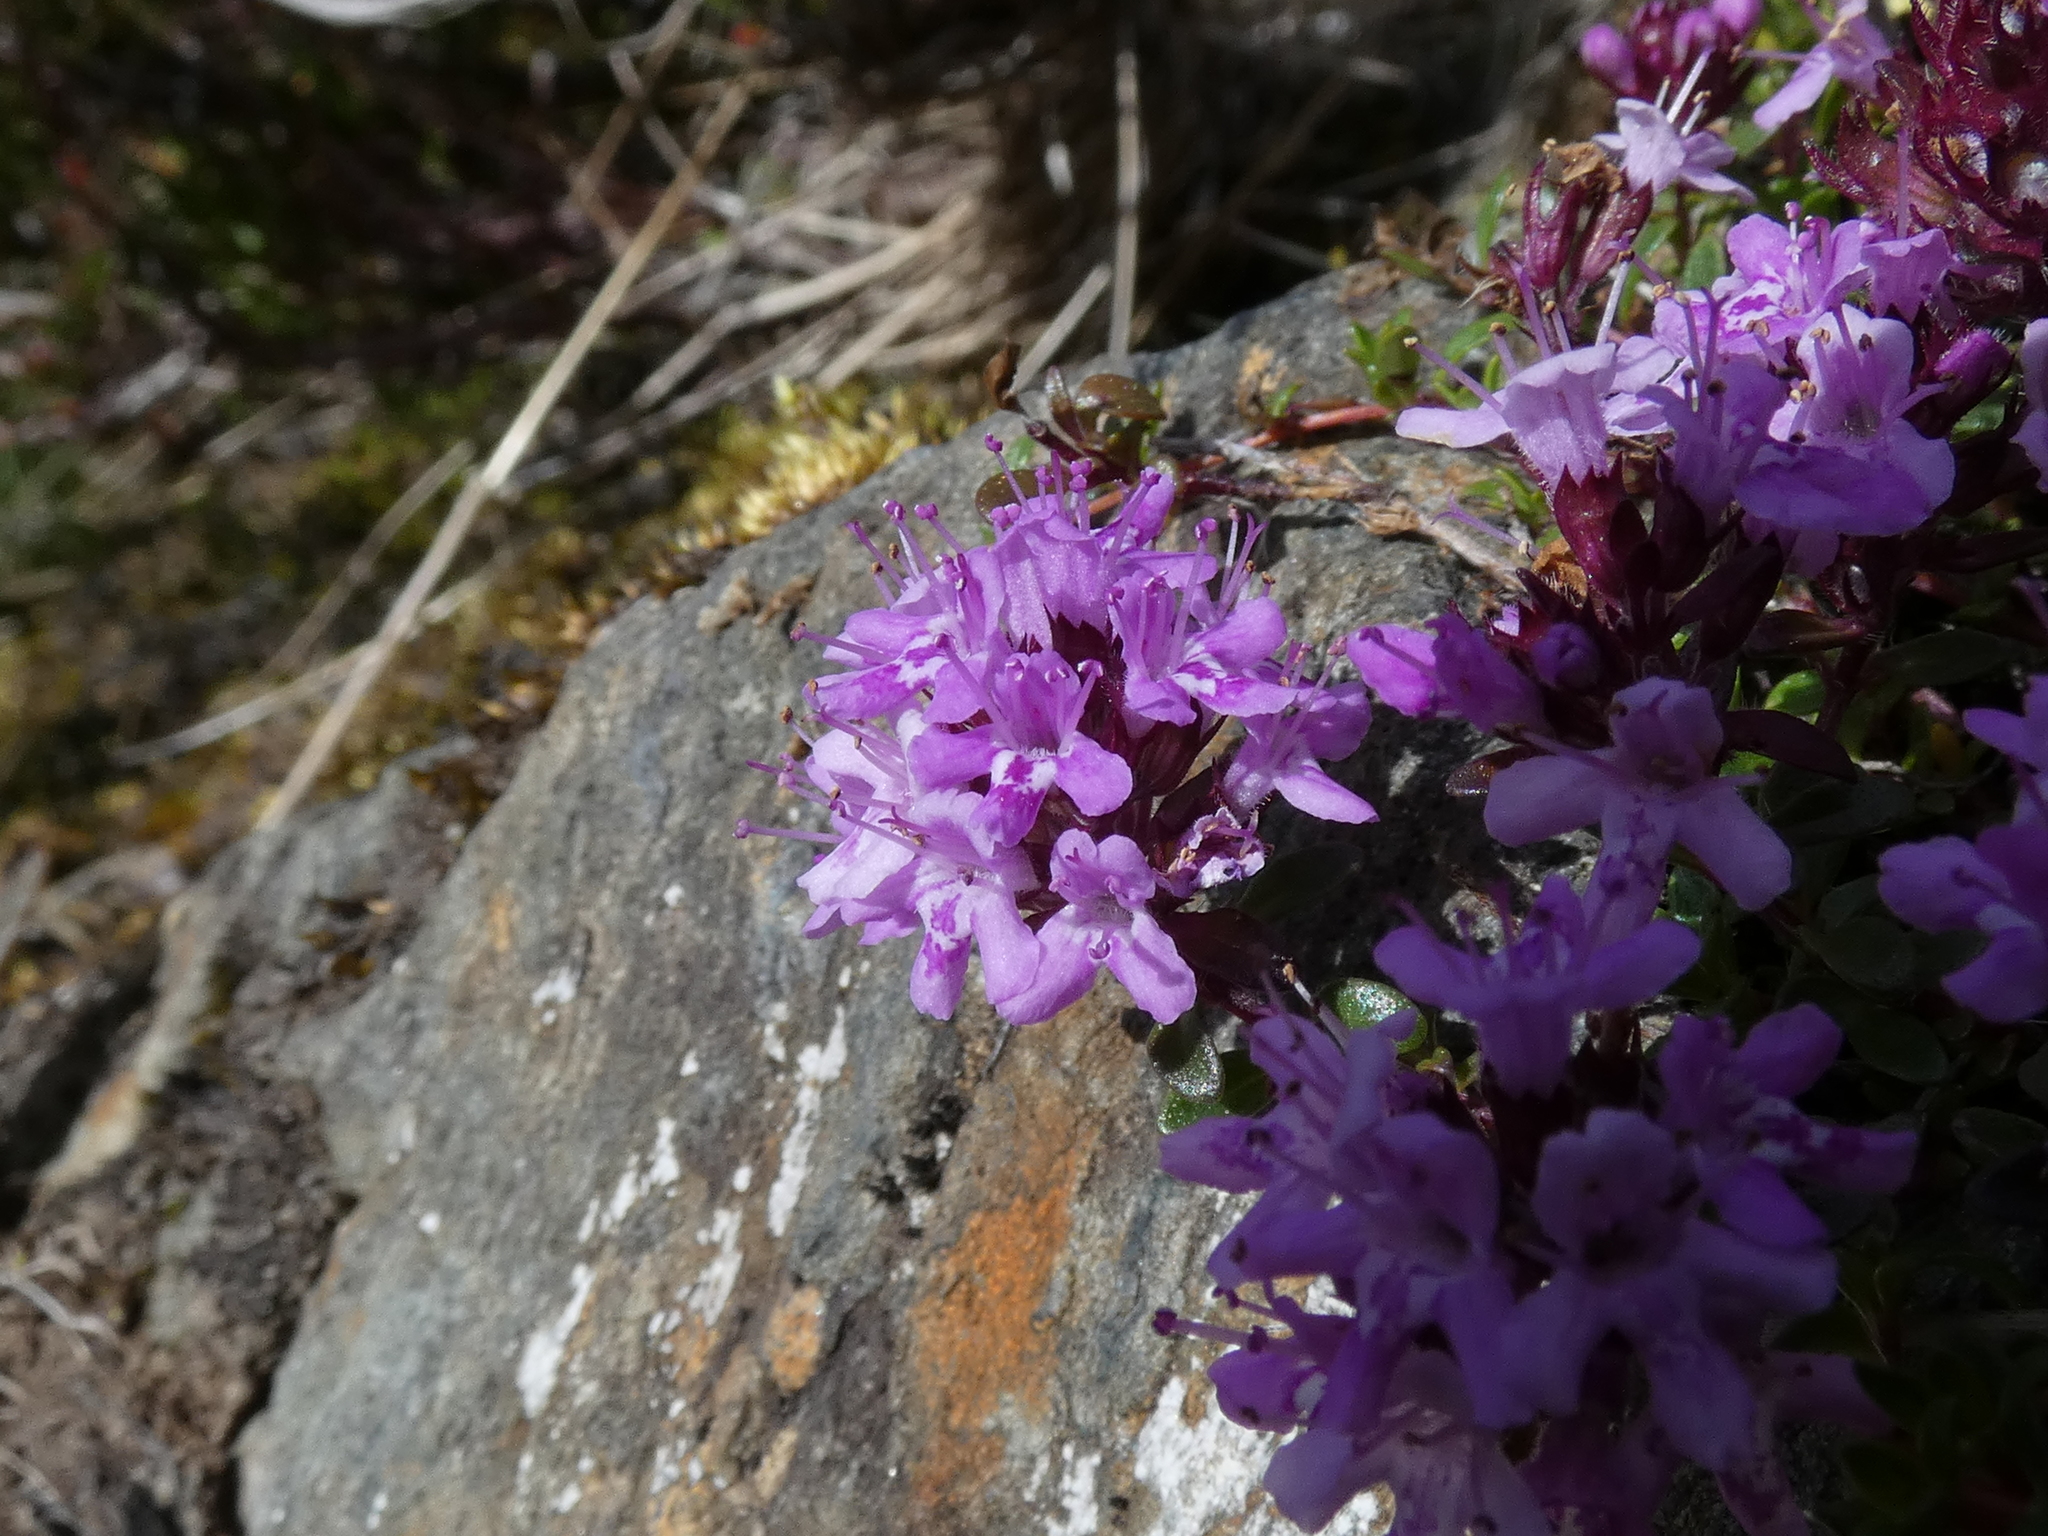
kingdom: Plantae
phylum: Tracheophyta
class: Magnoliopsida
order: Lamiales
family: Lamiaceae
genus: Thymus
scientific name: Thymus praecox
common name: Wild thyme
